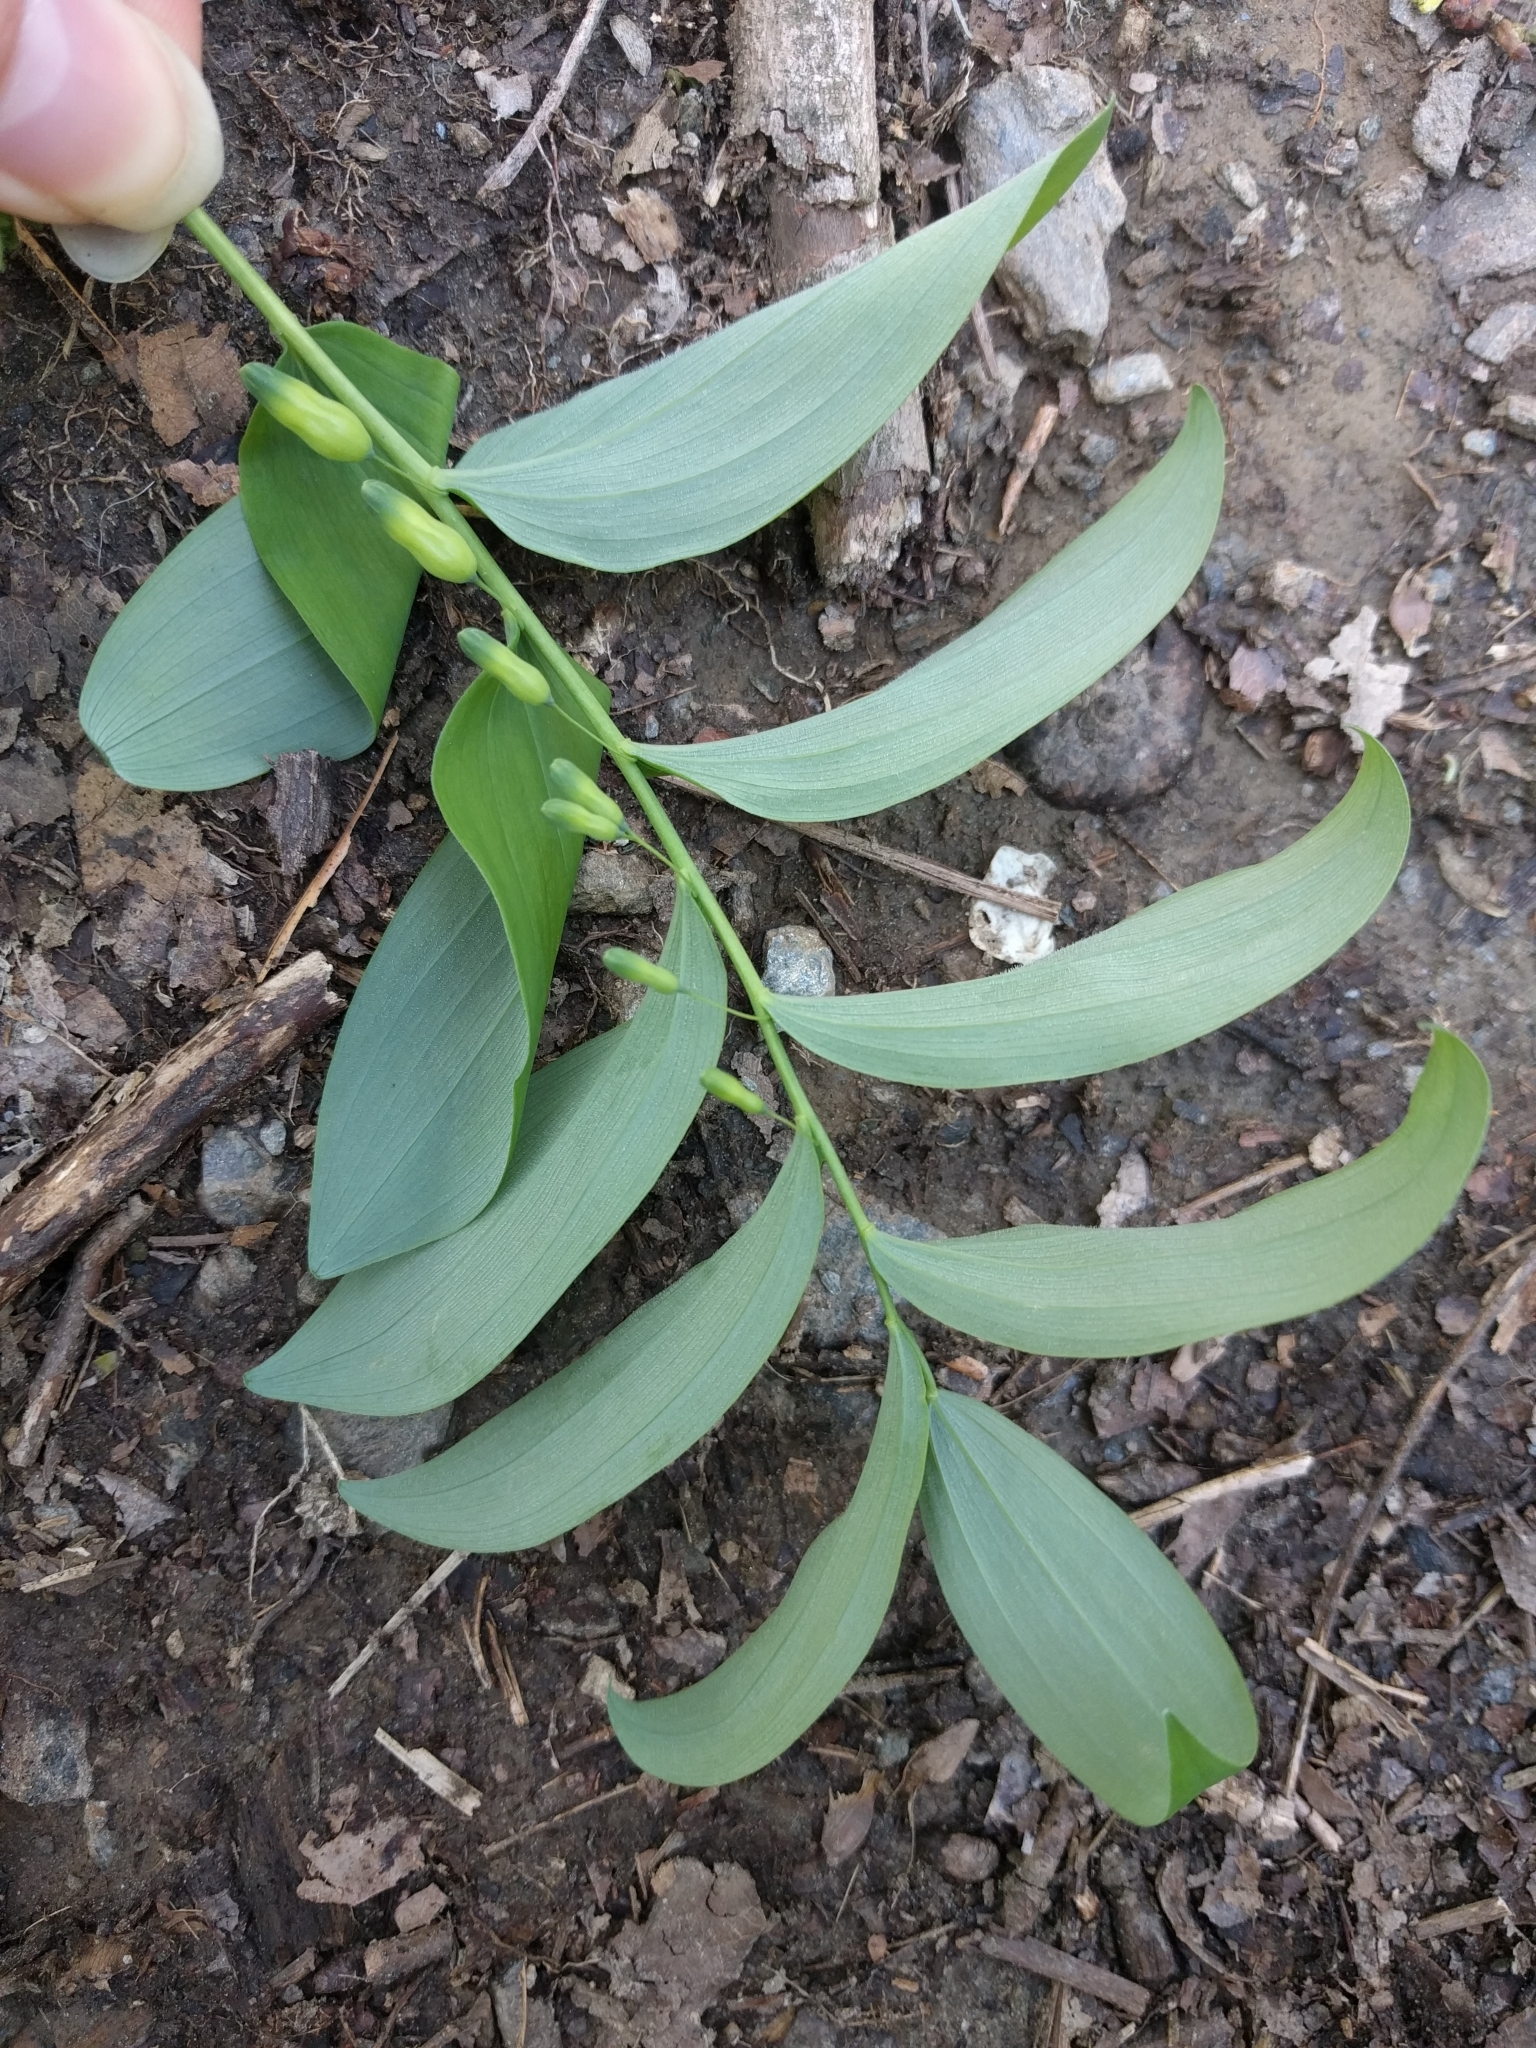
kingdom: Plantae
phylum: Tracheophyta
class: Liliopsida
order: Asparagales
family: Asparagaceae
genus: Polygonatum
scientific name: Polygonatum pubescens
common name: Downy solomon's seal
